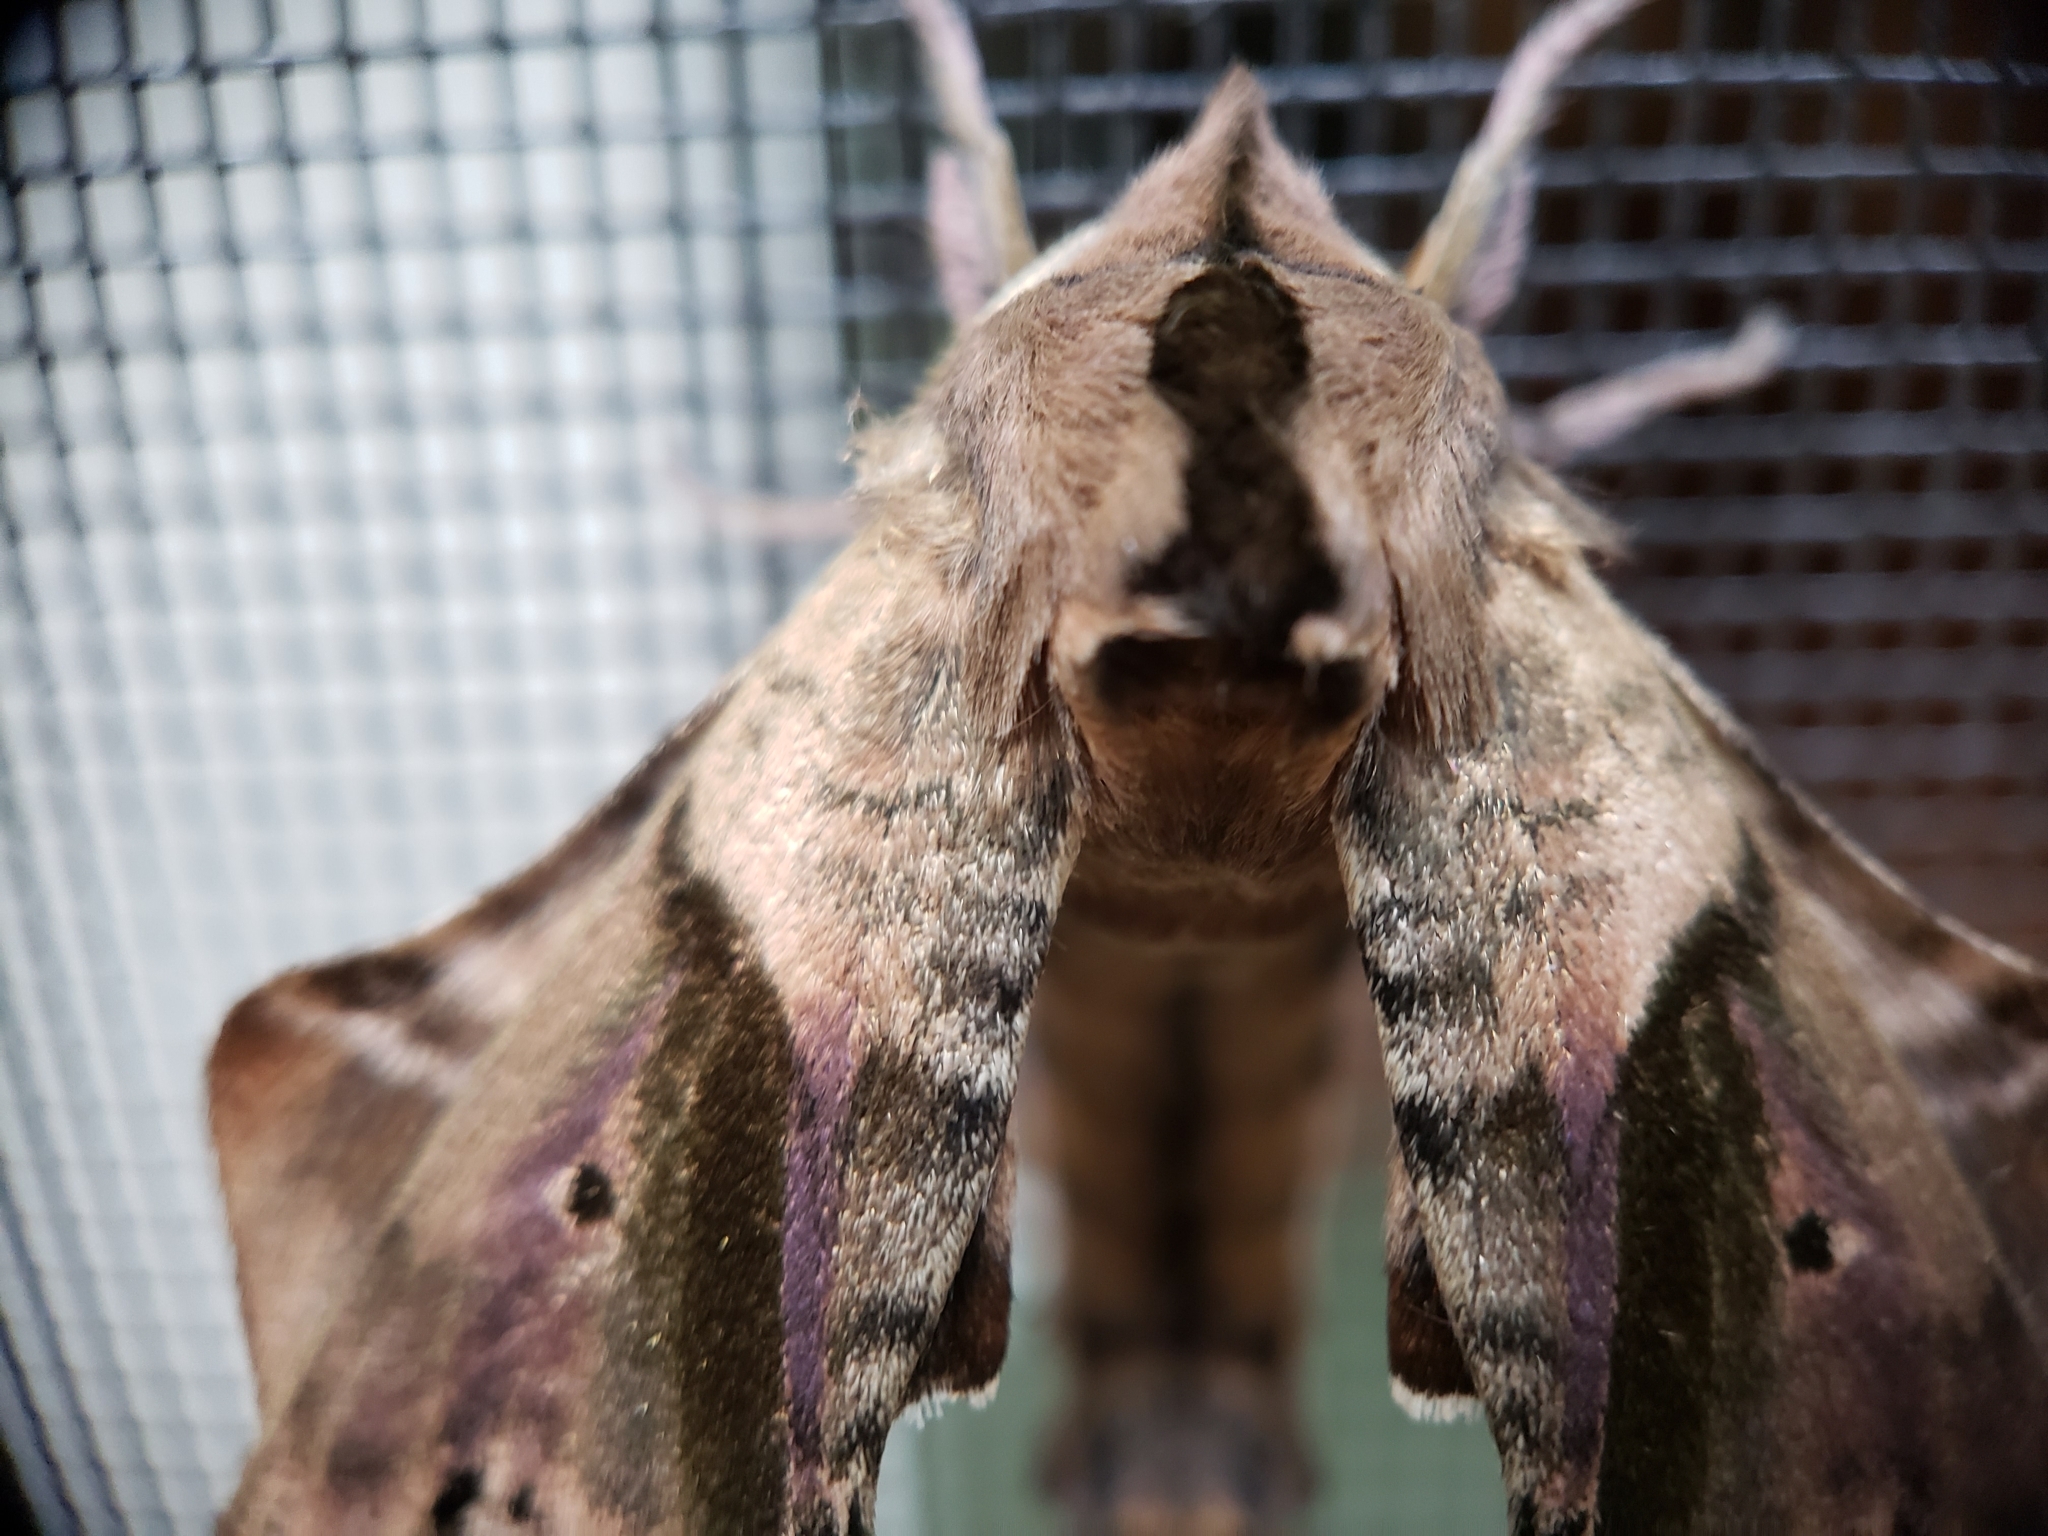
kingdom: Animalia
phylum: Arthropoda
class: Insecta
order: Lepidoptera
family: Sphingidae
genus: Paonias
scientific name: Paonias excaecata
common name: Blind-eyed sphinx
